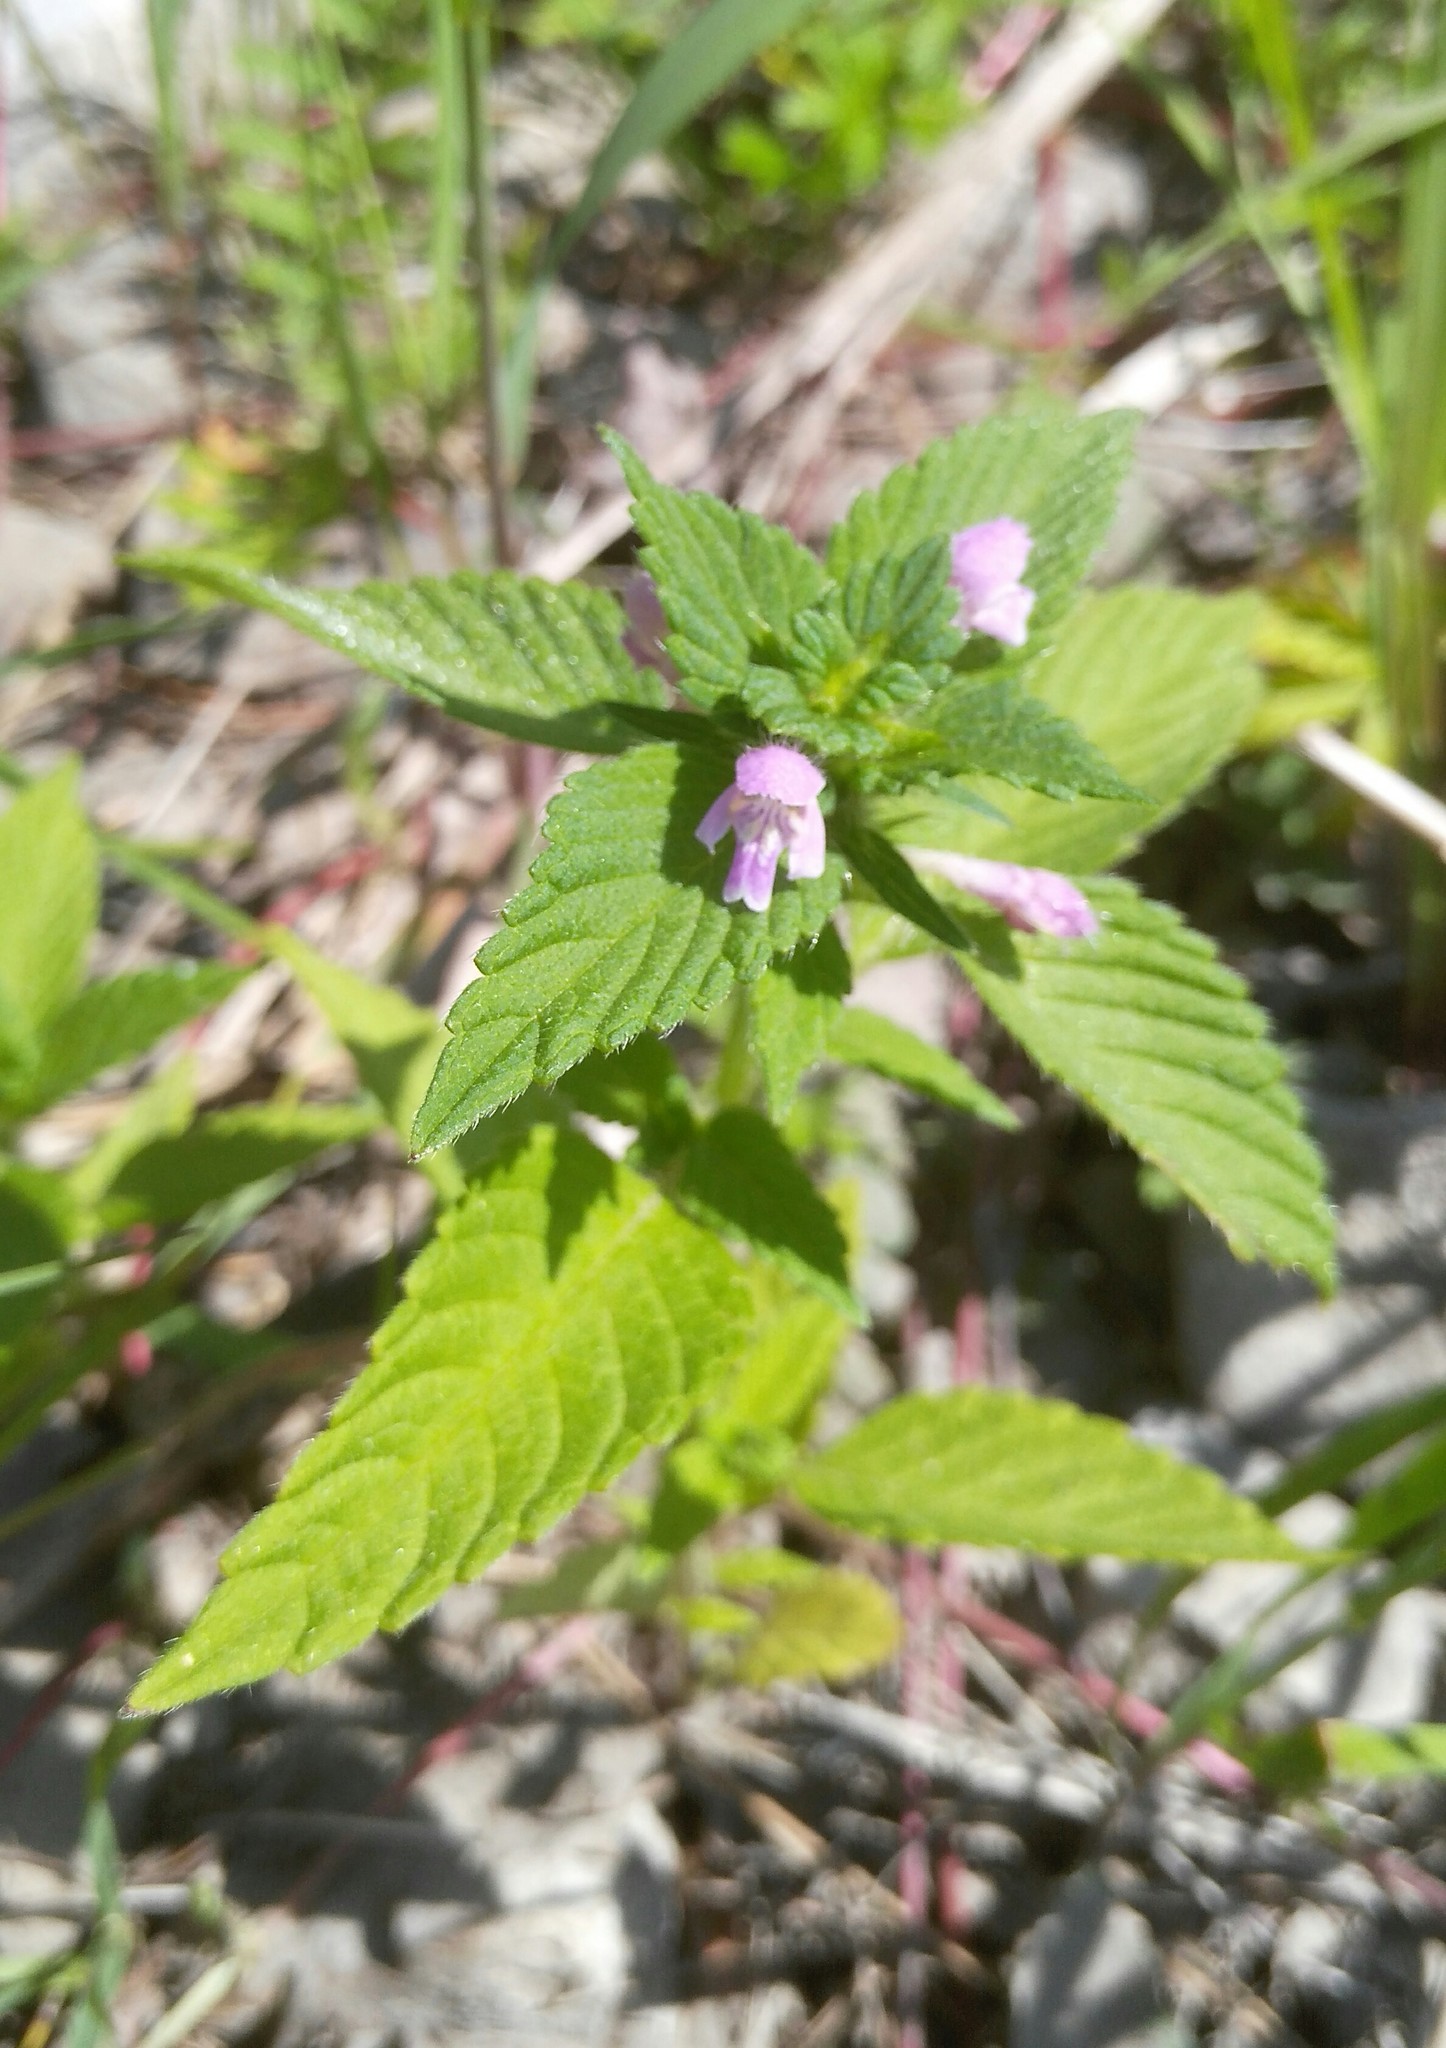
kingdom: Plantae
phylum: Tracheophyta
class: Magnoliopsida
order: Lamiales
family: Lamiaceae
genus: Galeopsis
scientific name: Galeopsis bifida
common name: Bifid hemp-nettle
